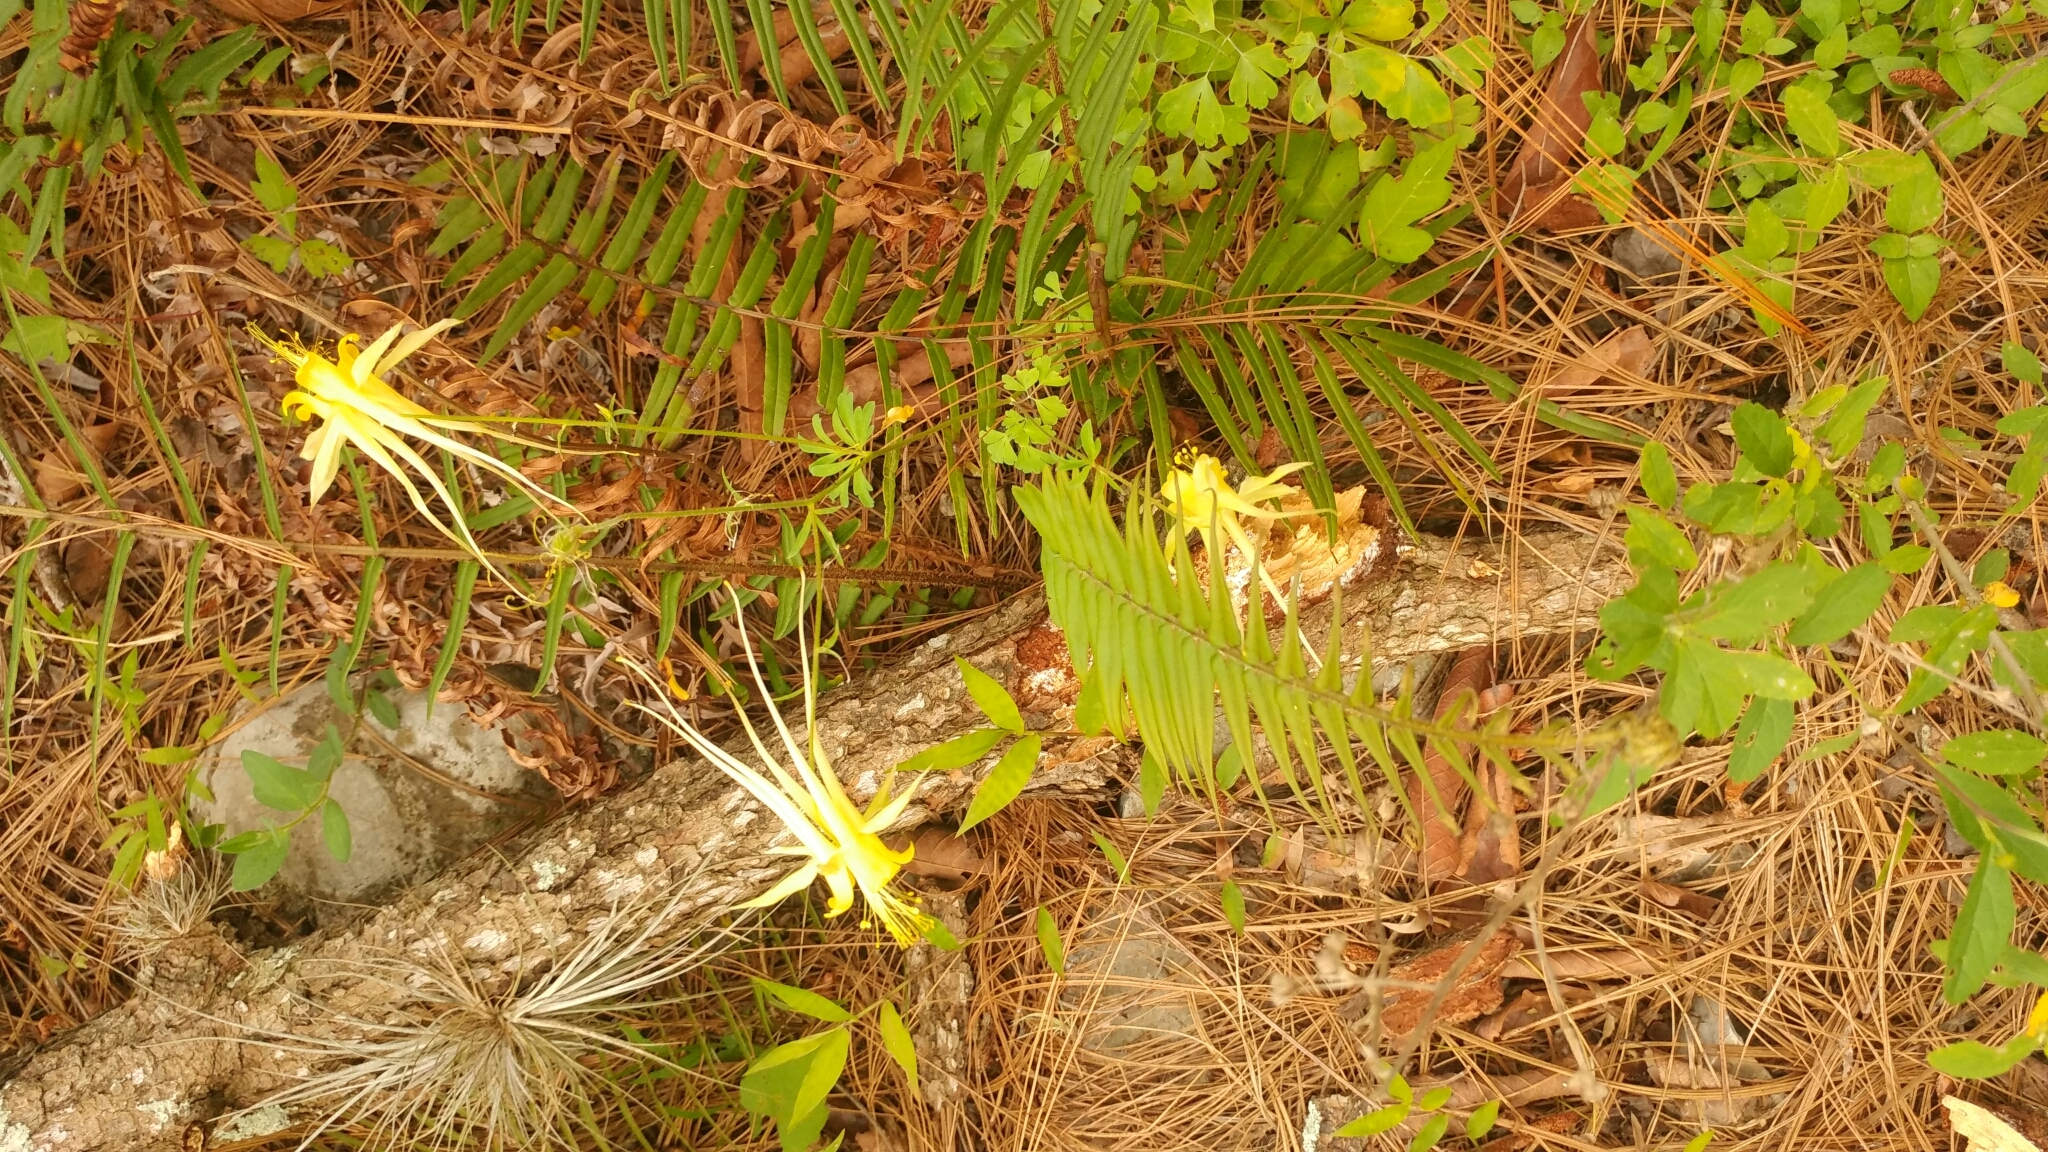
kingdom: Plantae
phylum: Tracheophyta
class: Magnoliopsida
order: Ranunculales
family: Ranunculaceae
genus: Aquilegia
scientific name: Aquilegia longissima
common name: Long-spur columbine
